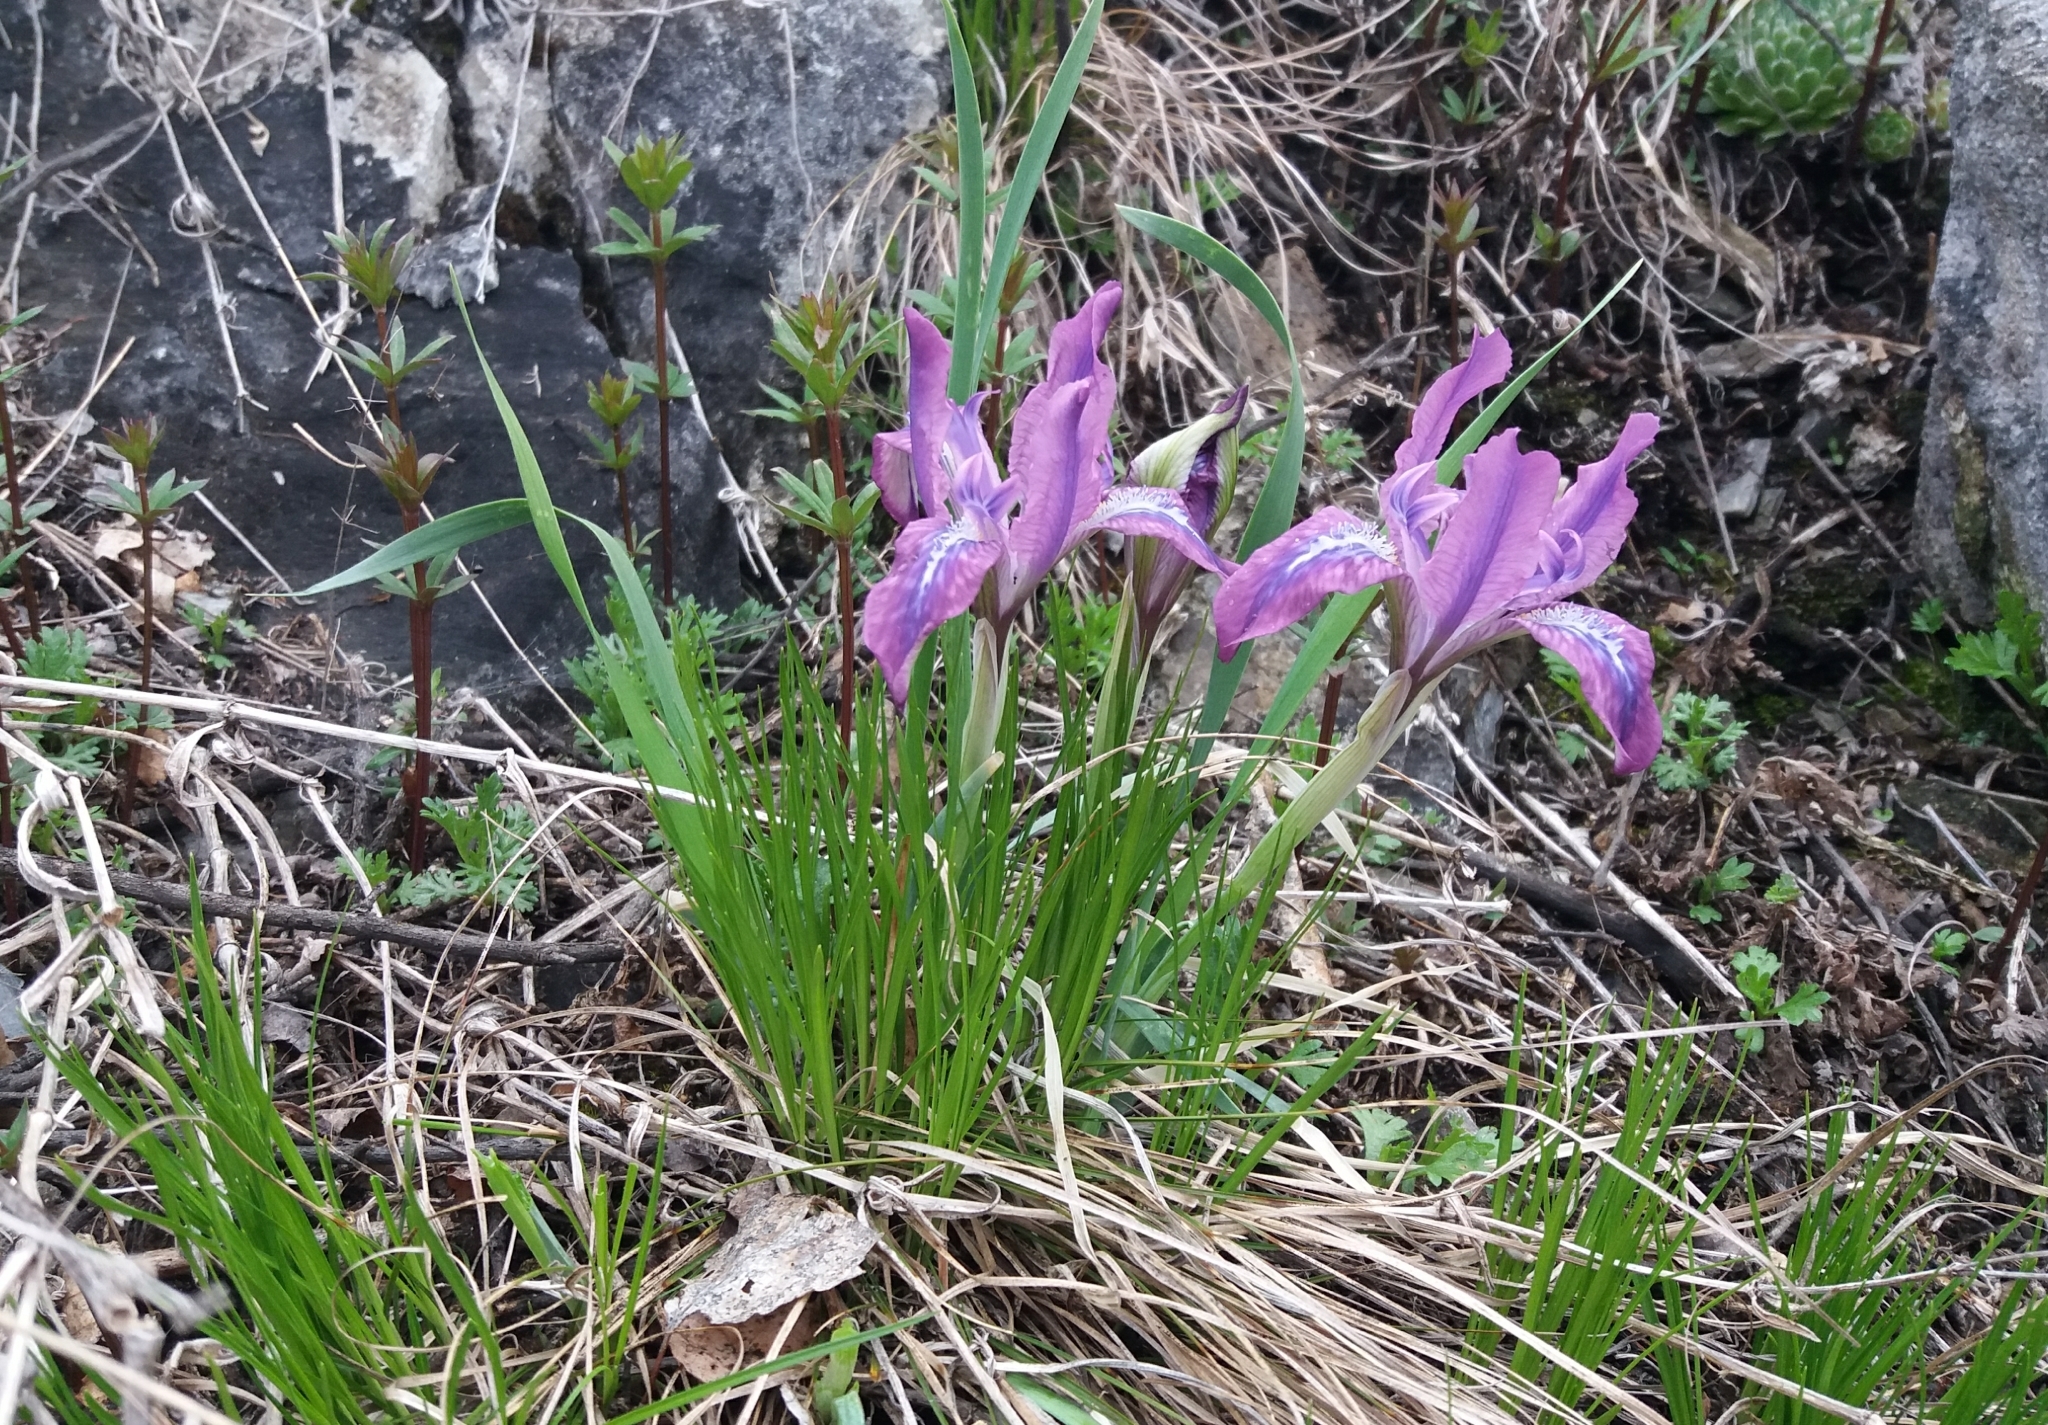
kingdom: Plantae
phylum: Tracheophyta
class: Liliopsida
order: Asparagales
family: Iridaceae
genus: Iris
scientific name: Iris tigridia
